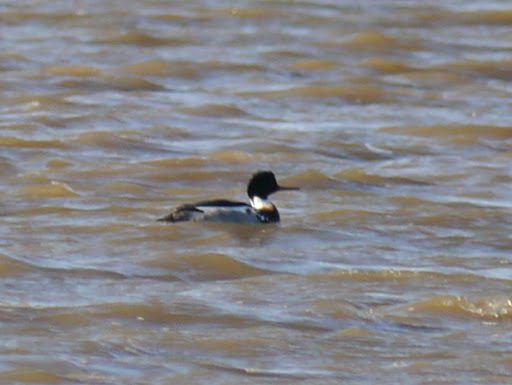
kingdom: Animalia
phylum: Chordata
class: Aves
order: Anseriformes
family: Anatidae
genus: Mergus
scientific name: Mergus serrator
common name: Red-breasted merganser
